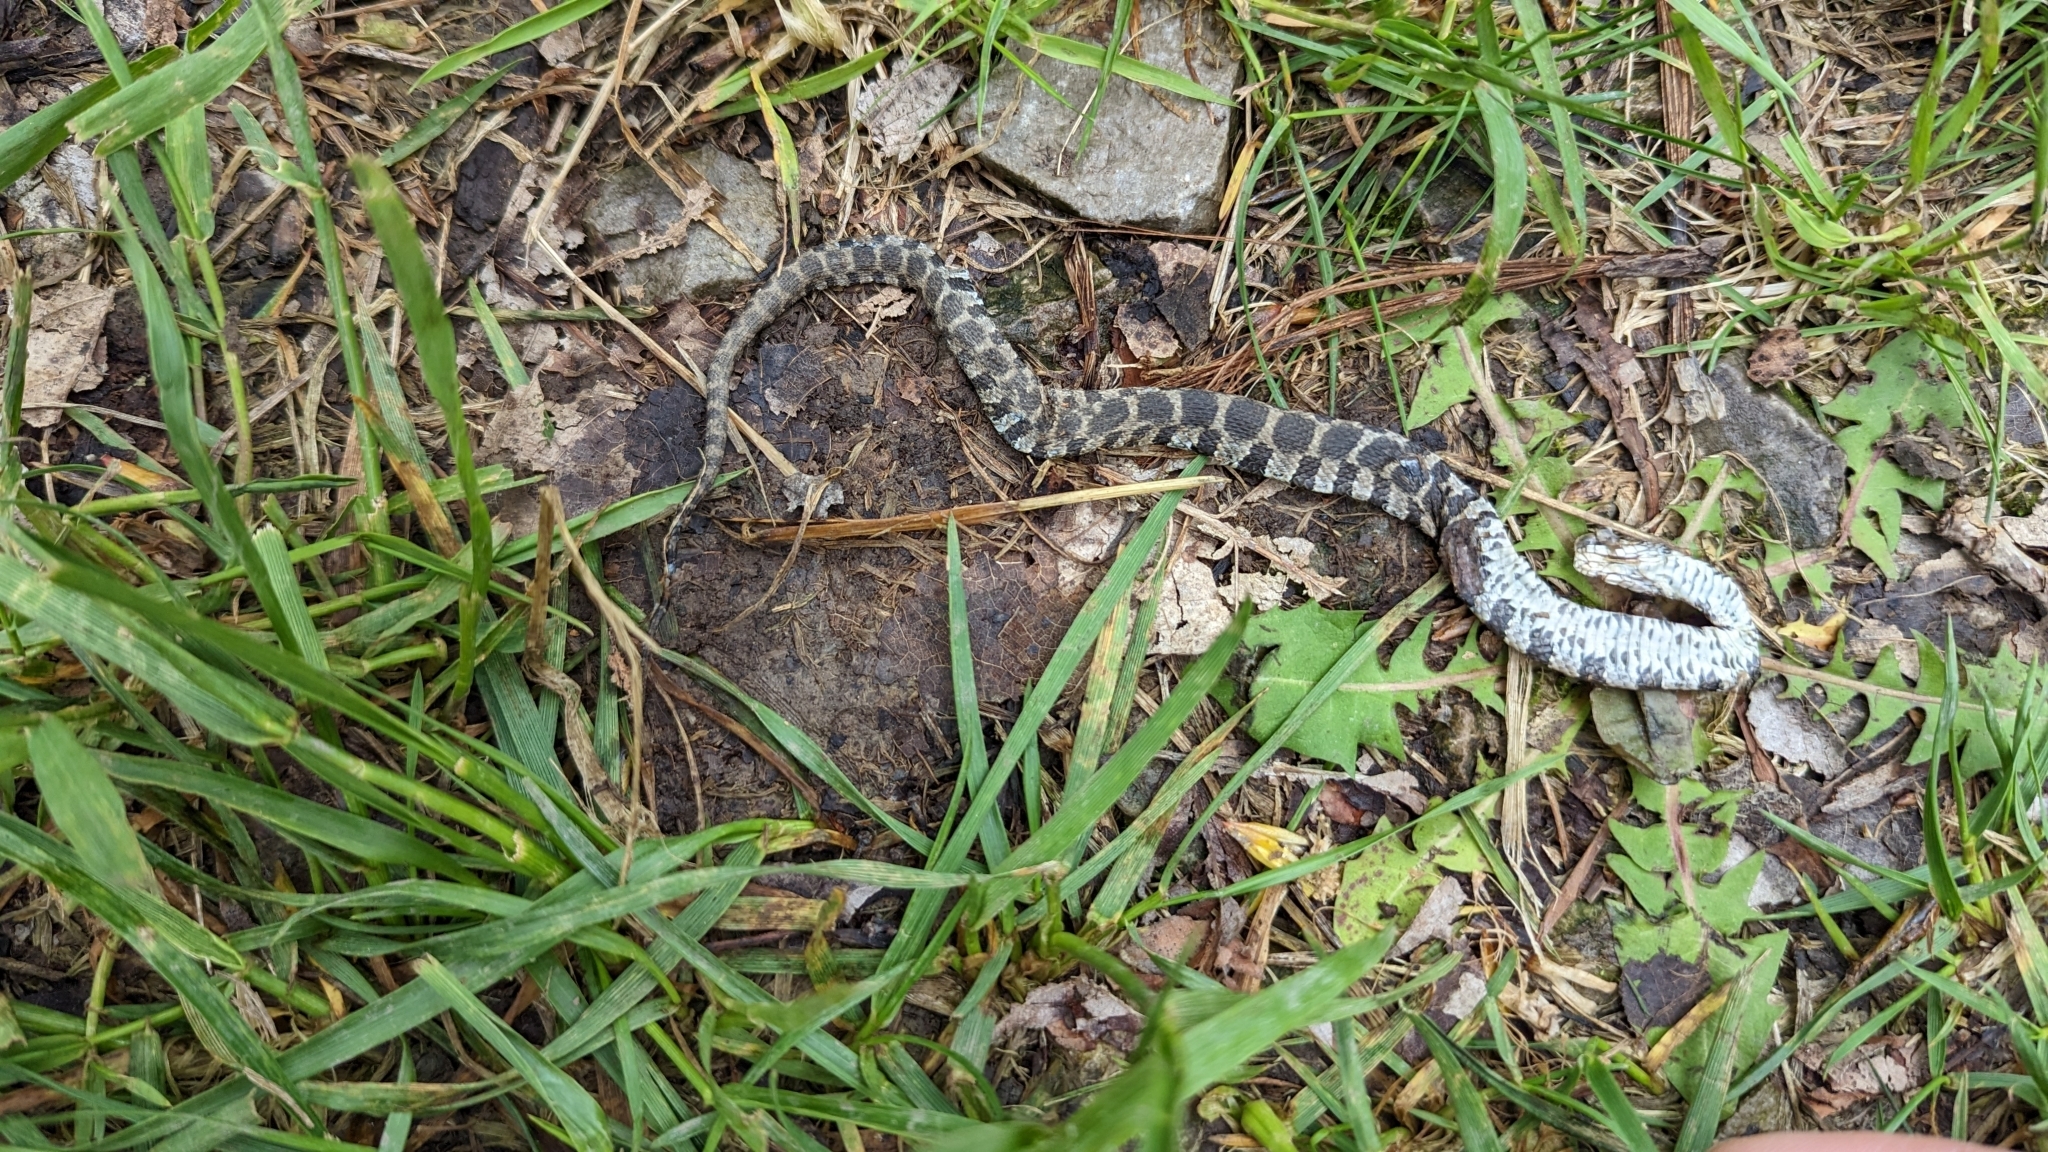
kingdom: Animalia
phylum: Chordata
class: Squamata
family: Colubridae
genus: Nerodia
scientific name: Nerodia sipedon
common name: Northern water snake
